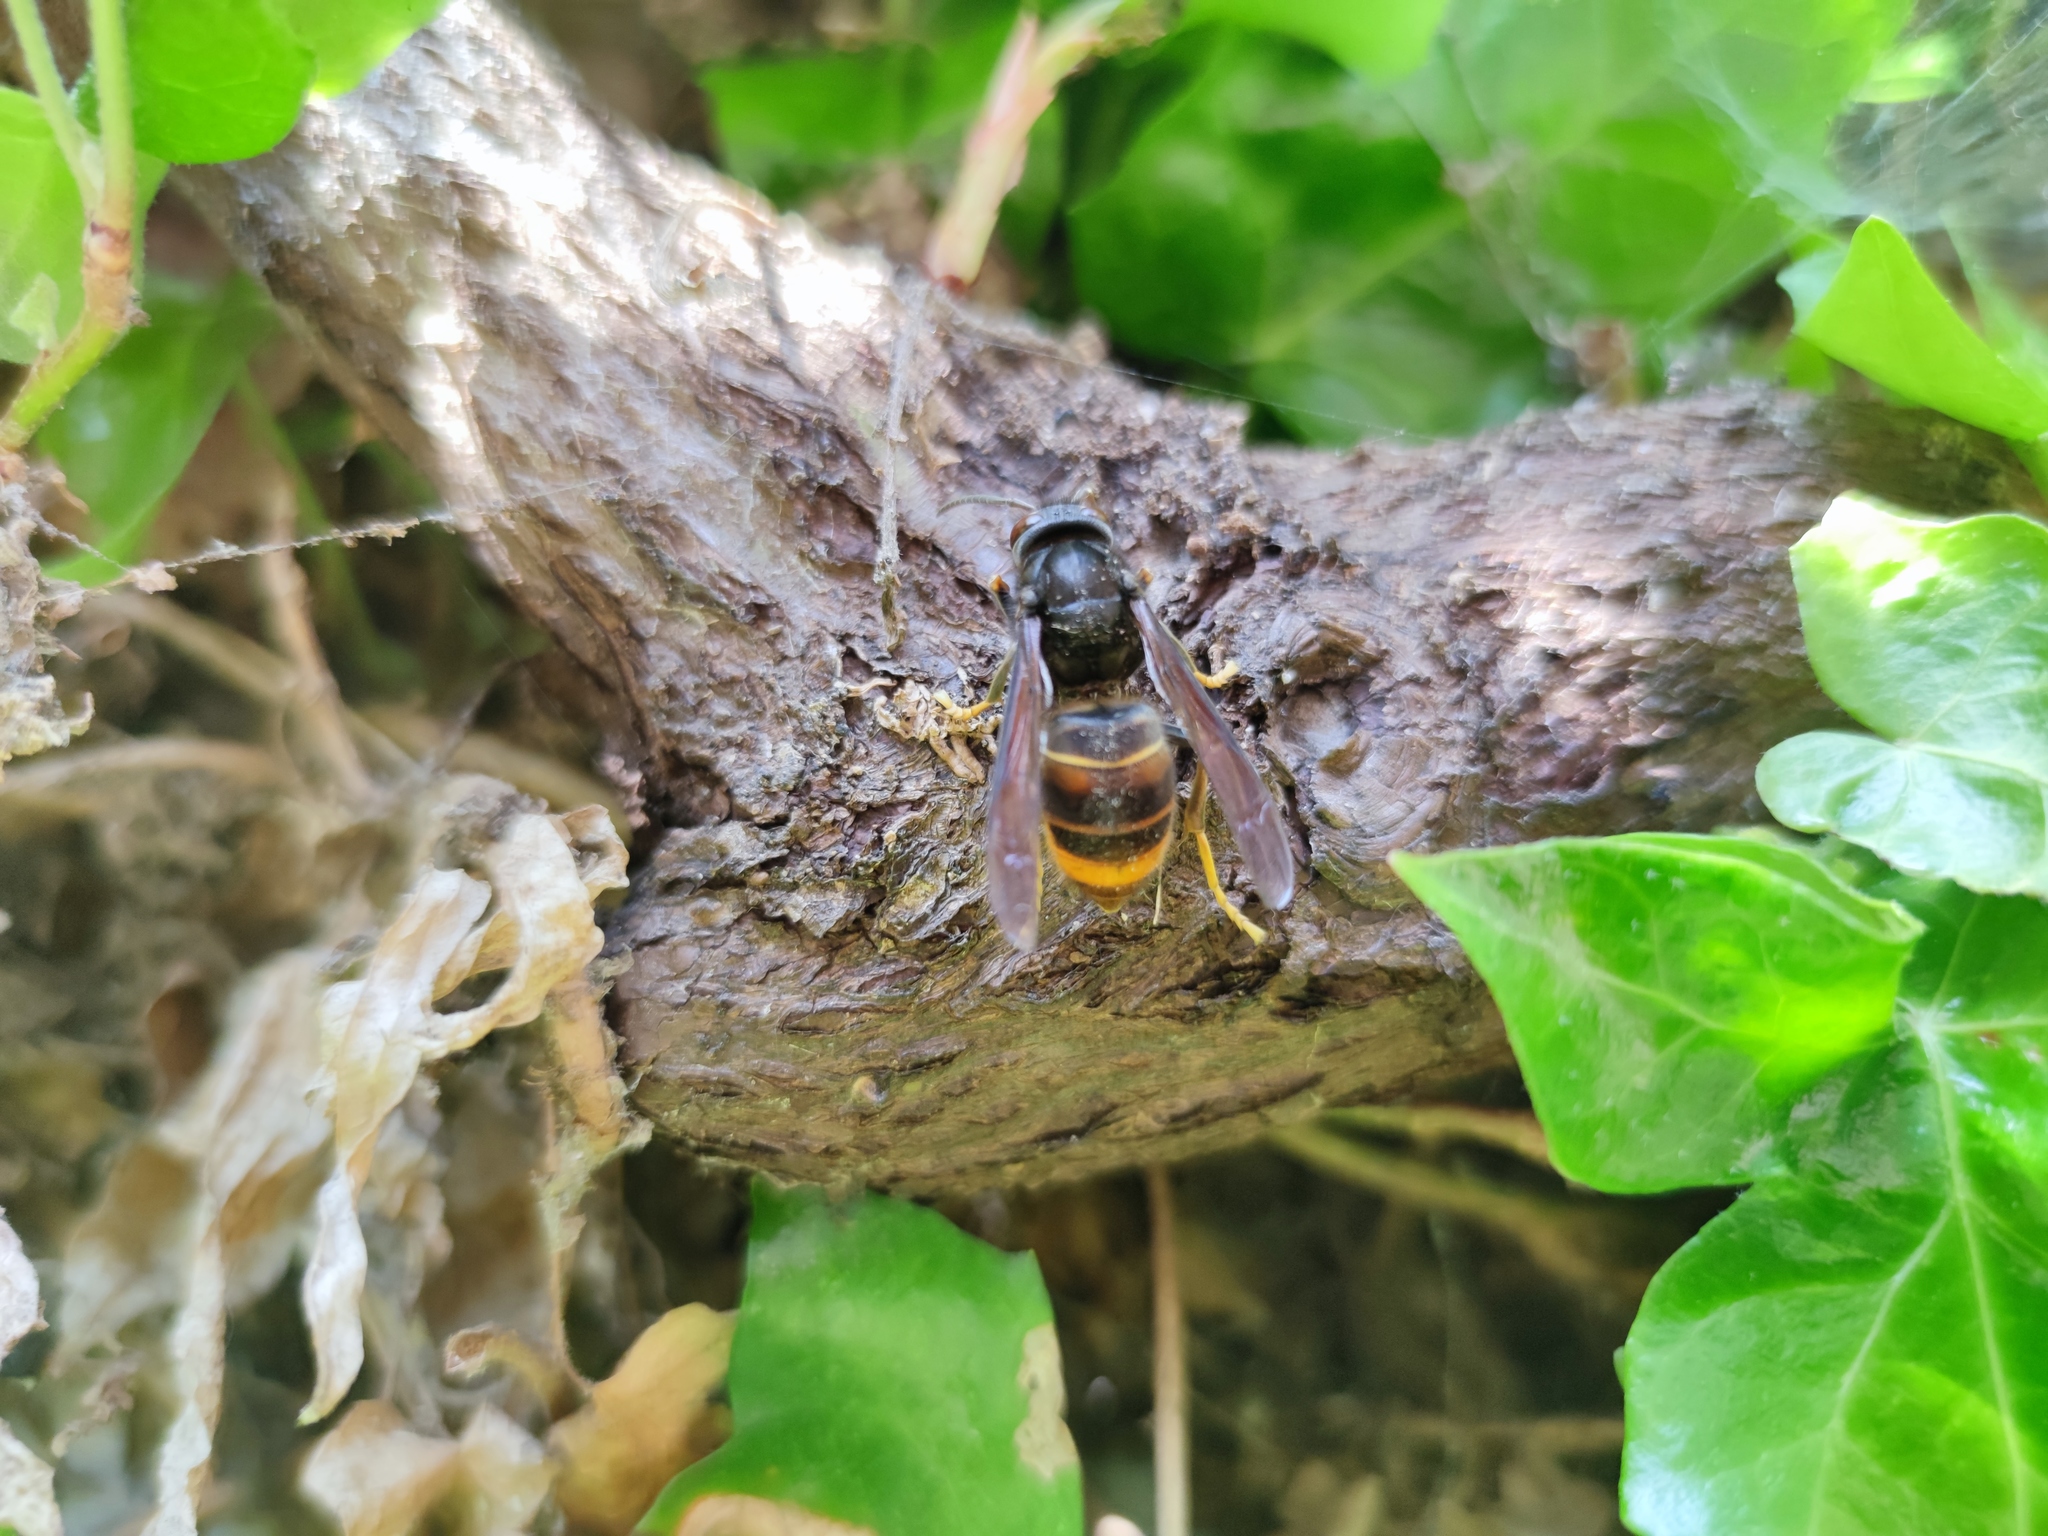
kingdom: Animalia
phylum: Arthropoda
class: Insecta
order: Hymenoptera
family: Vespidae
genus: Vespa
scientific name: Vespa velutina
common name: Asian hornet
